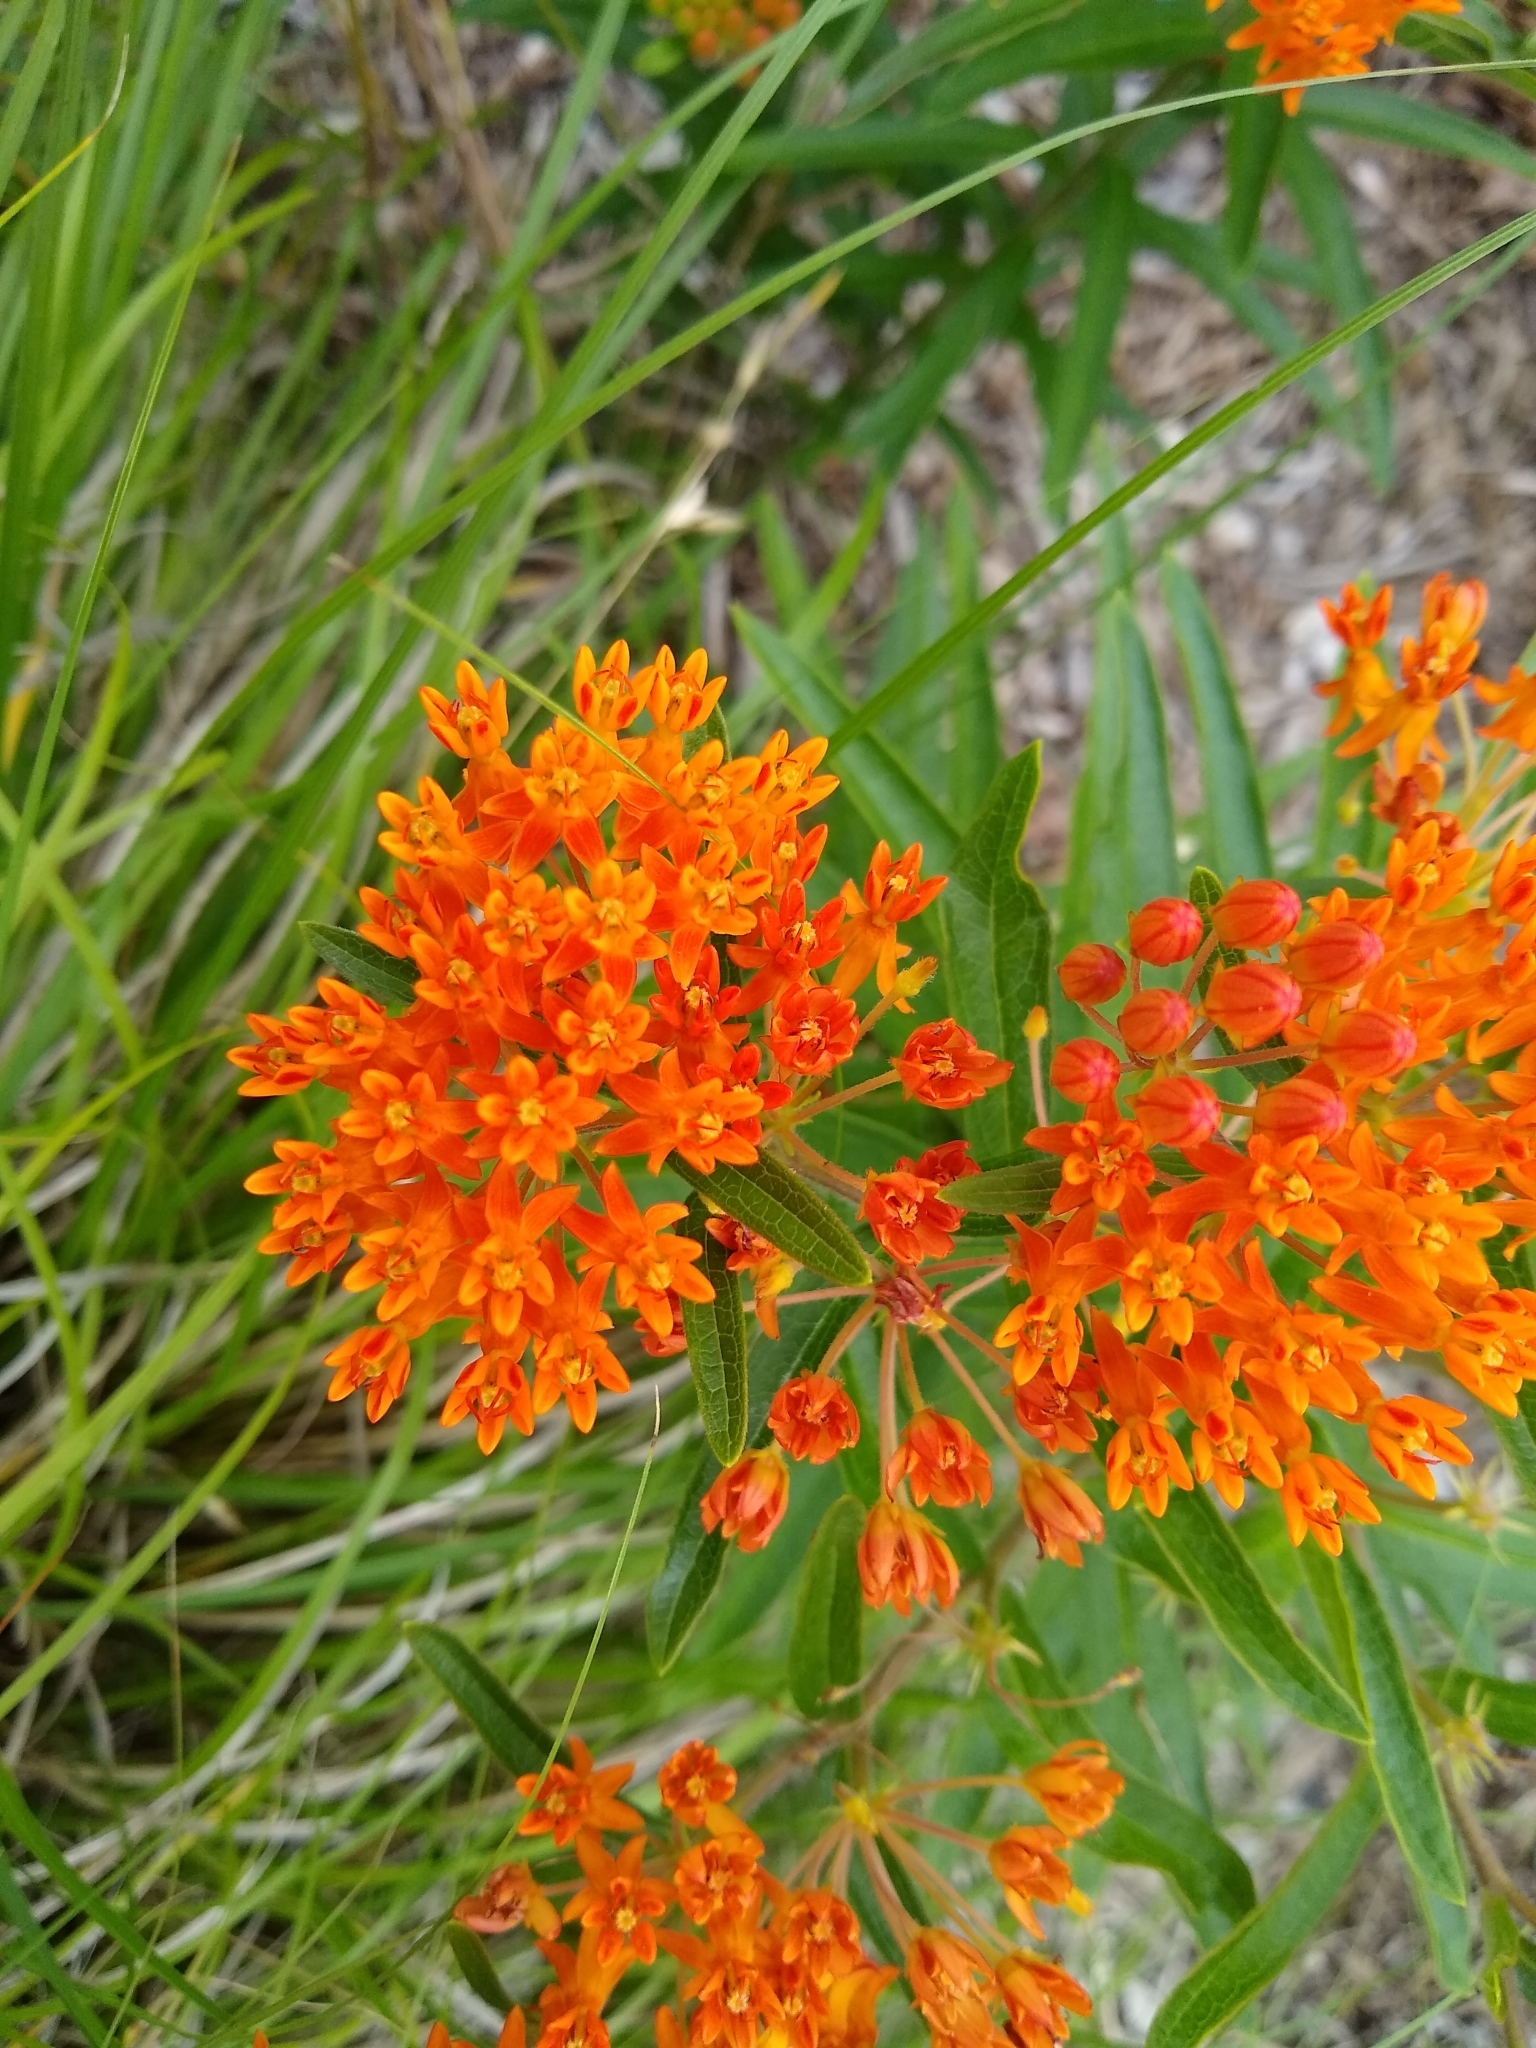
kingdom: Plantae
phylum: Tracheophyta
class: Magnoliopsida
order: Gentianales
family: Apocynaceae
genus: Asclepias
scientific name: Asclepias tuberosa
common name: Butterfly milkweed
